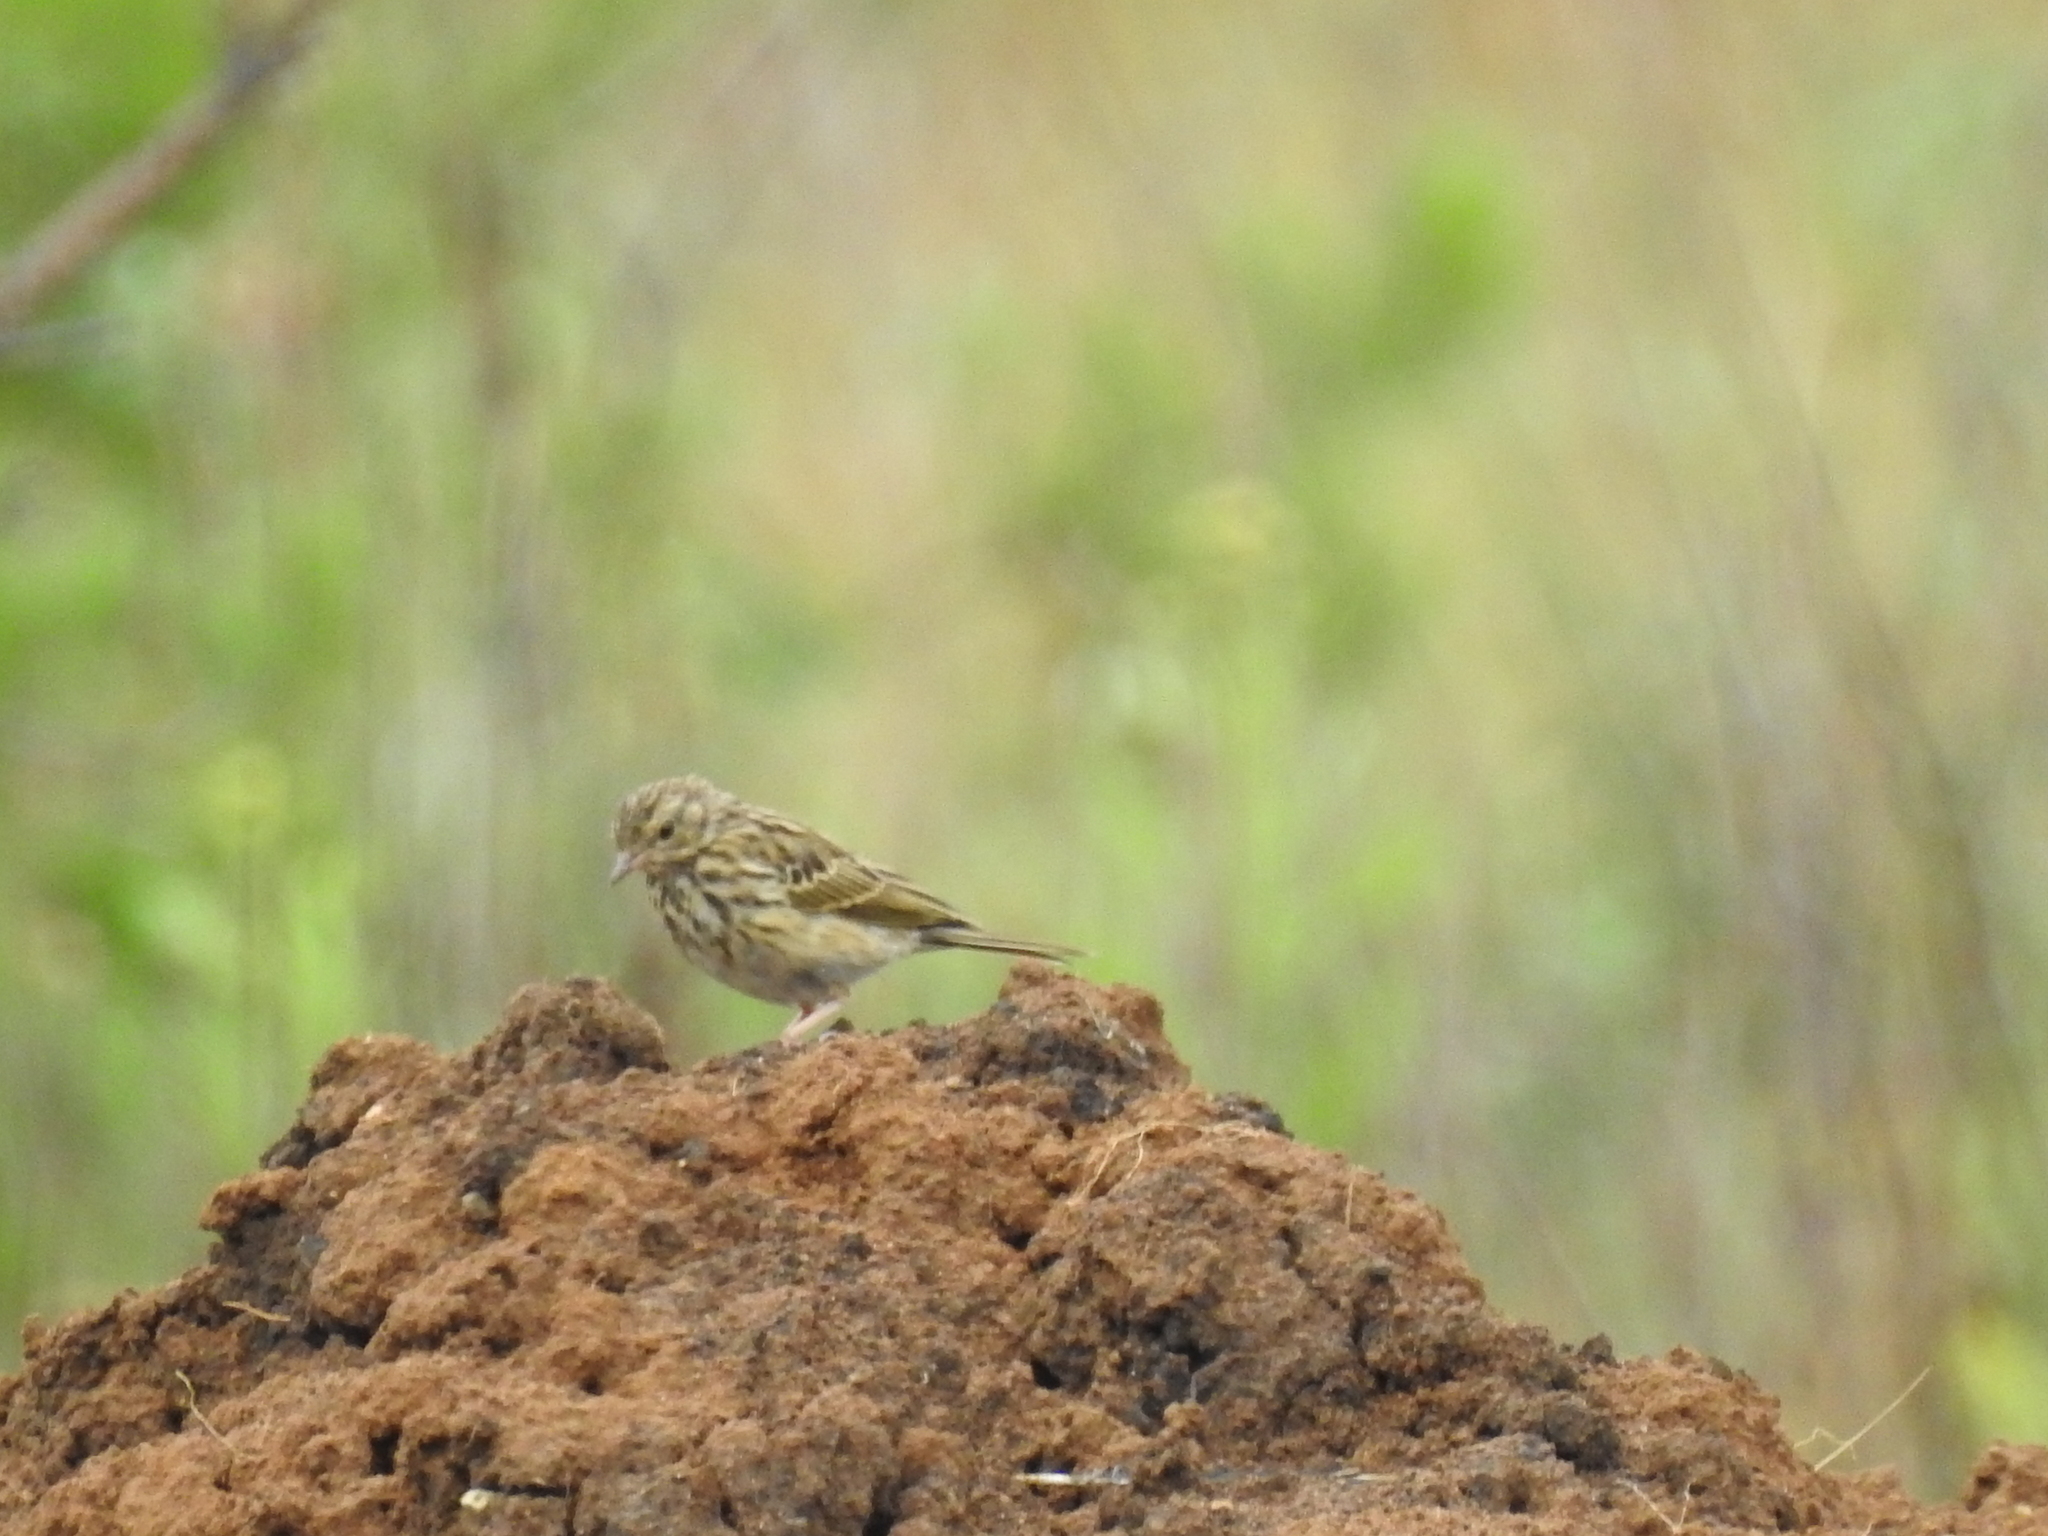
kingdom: Animalia
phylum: Chordata
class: Aves
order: Passeriformes
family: Motacillidae
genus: Anthus
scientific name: Anthus trivialis
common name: Tree pipit
